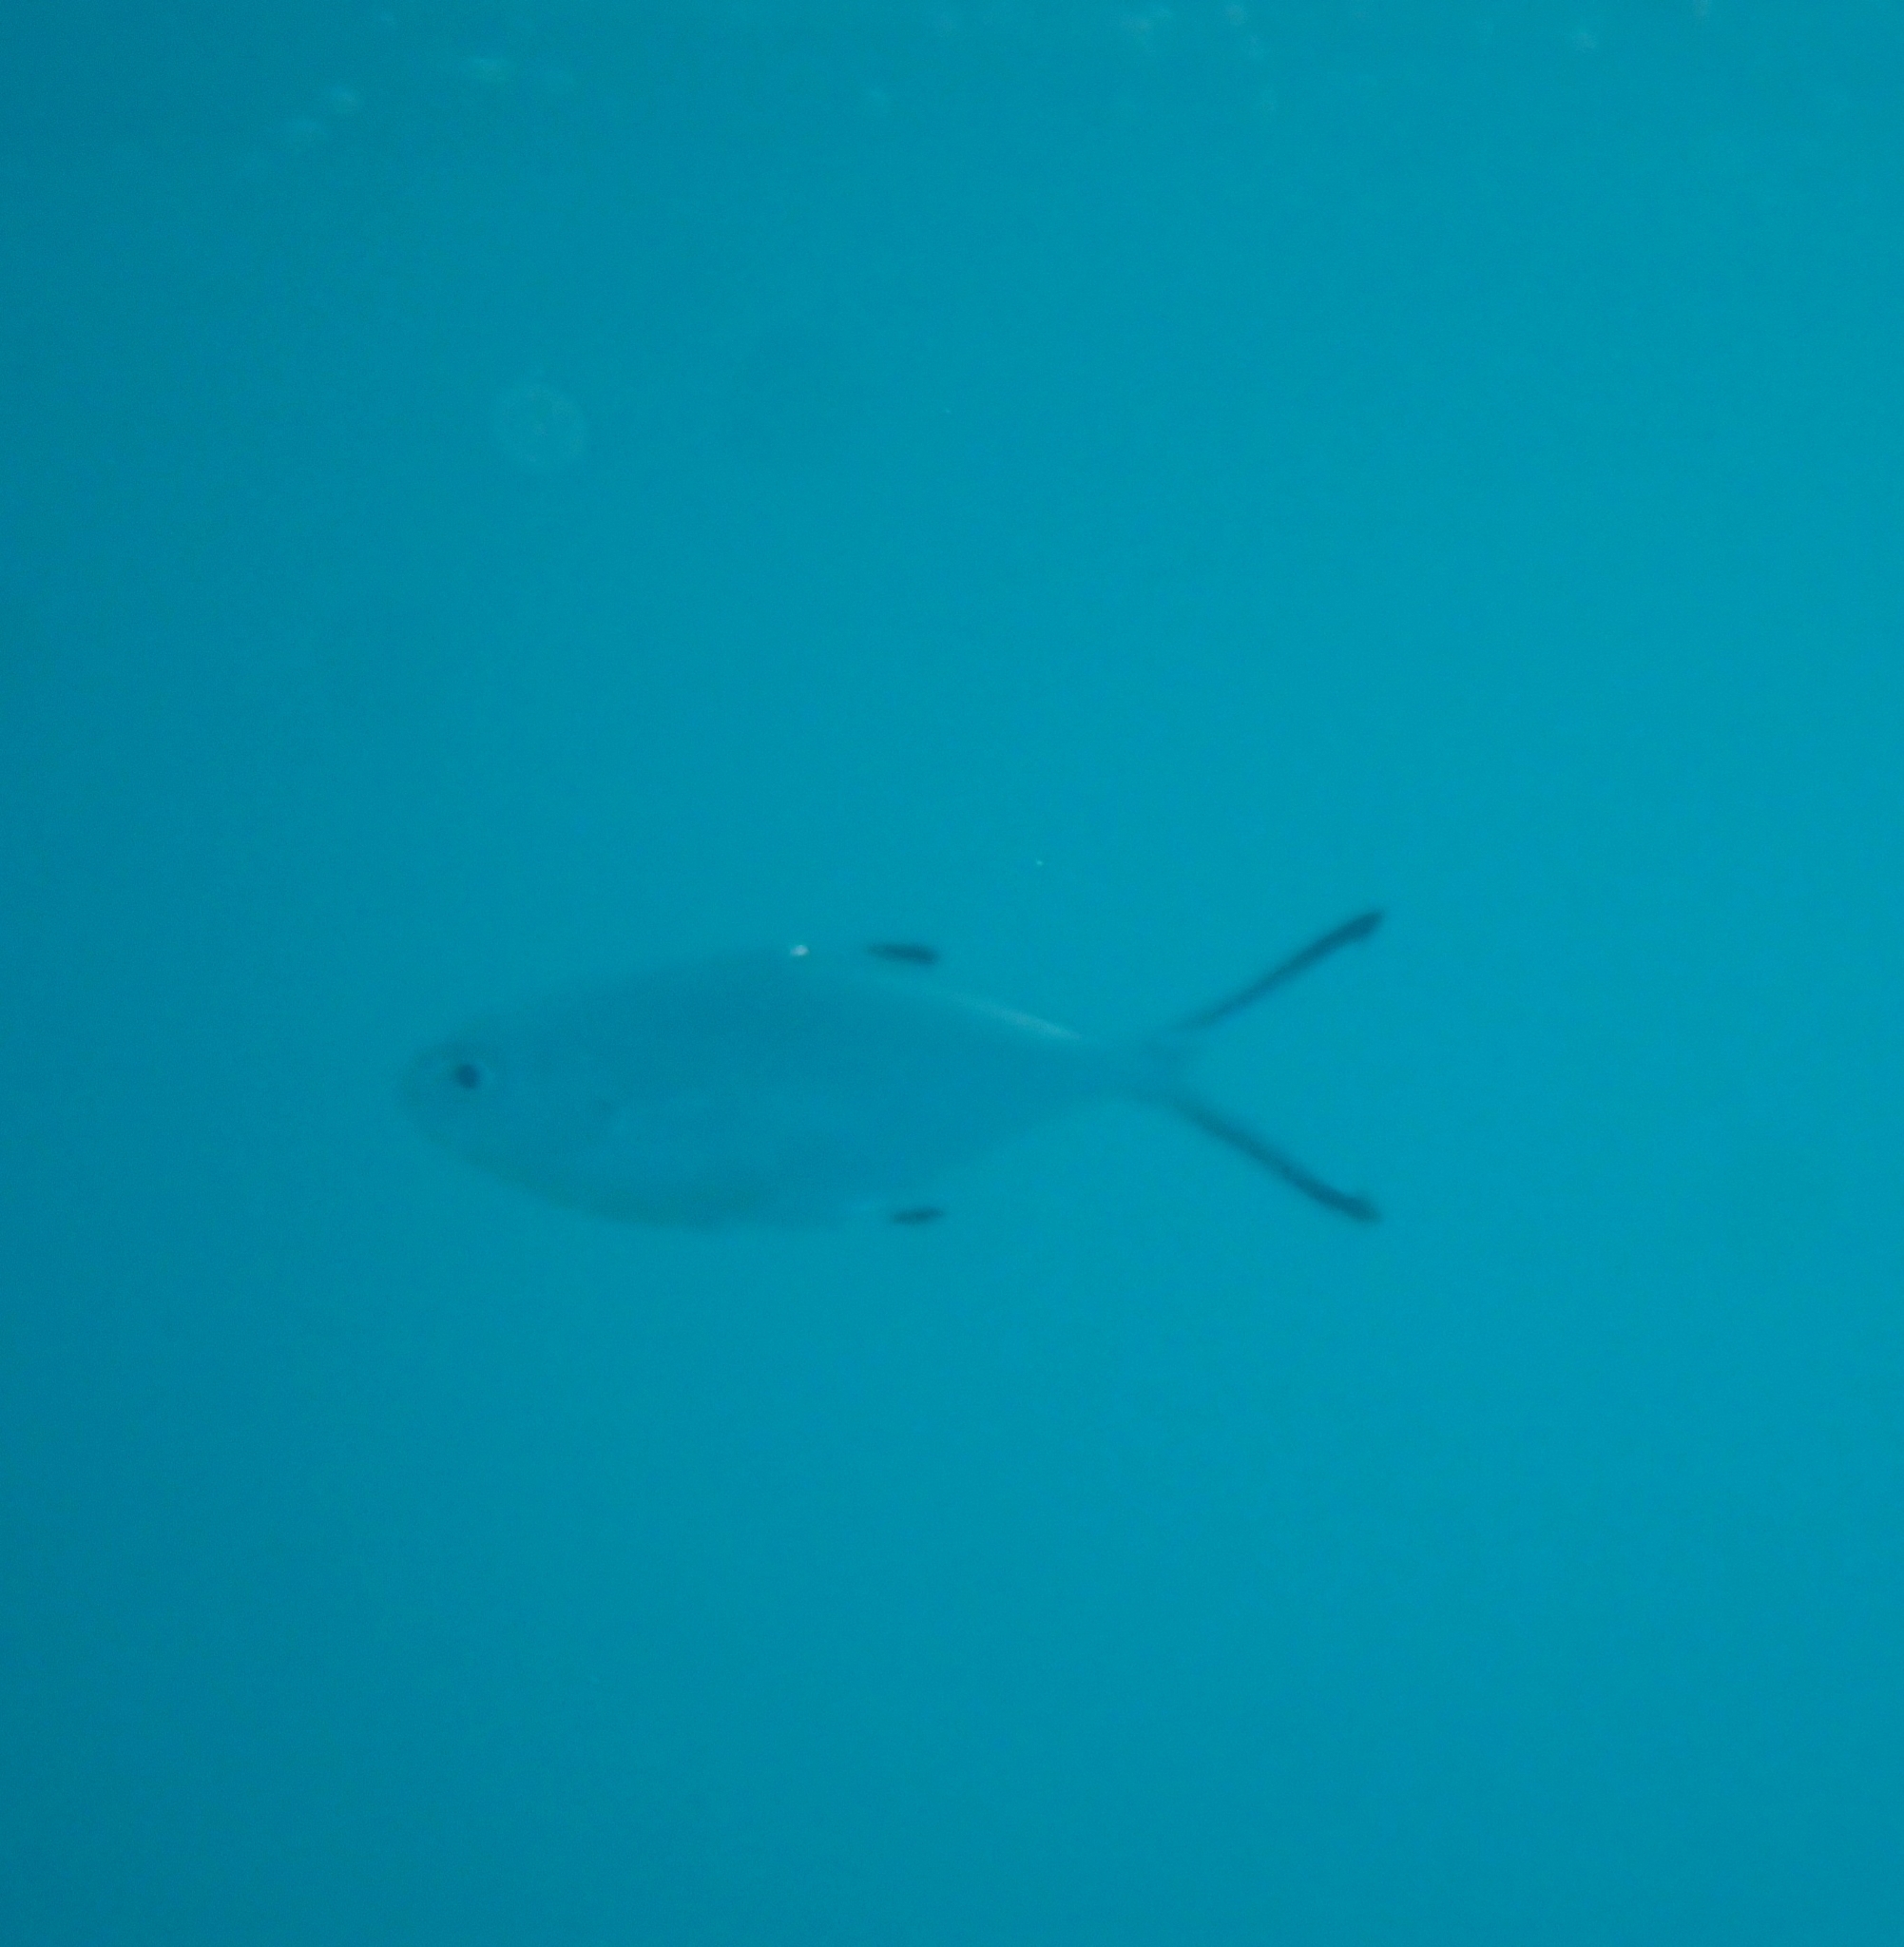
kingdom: Animalia
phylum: Chordata
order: Perciformes
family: Carangidae
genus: Trachinotus
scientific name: Trachinotus ovatus
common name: Pompano
